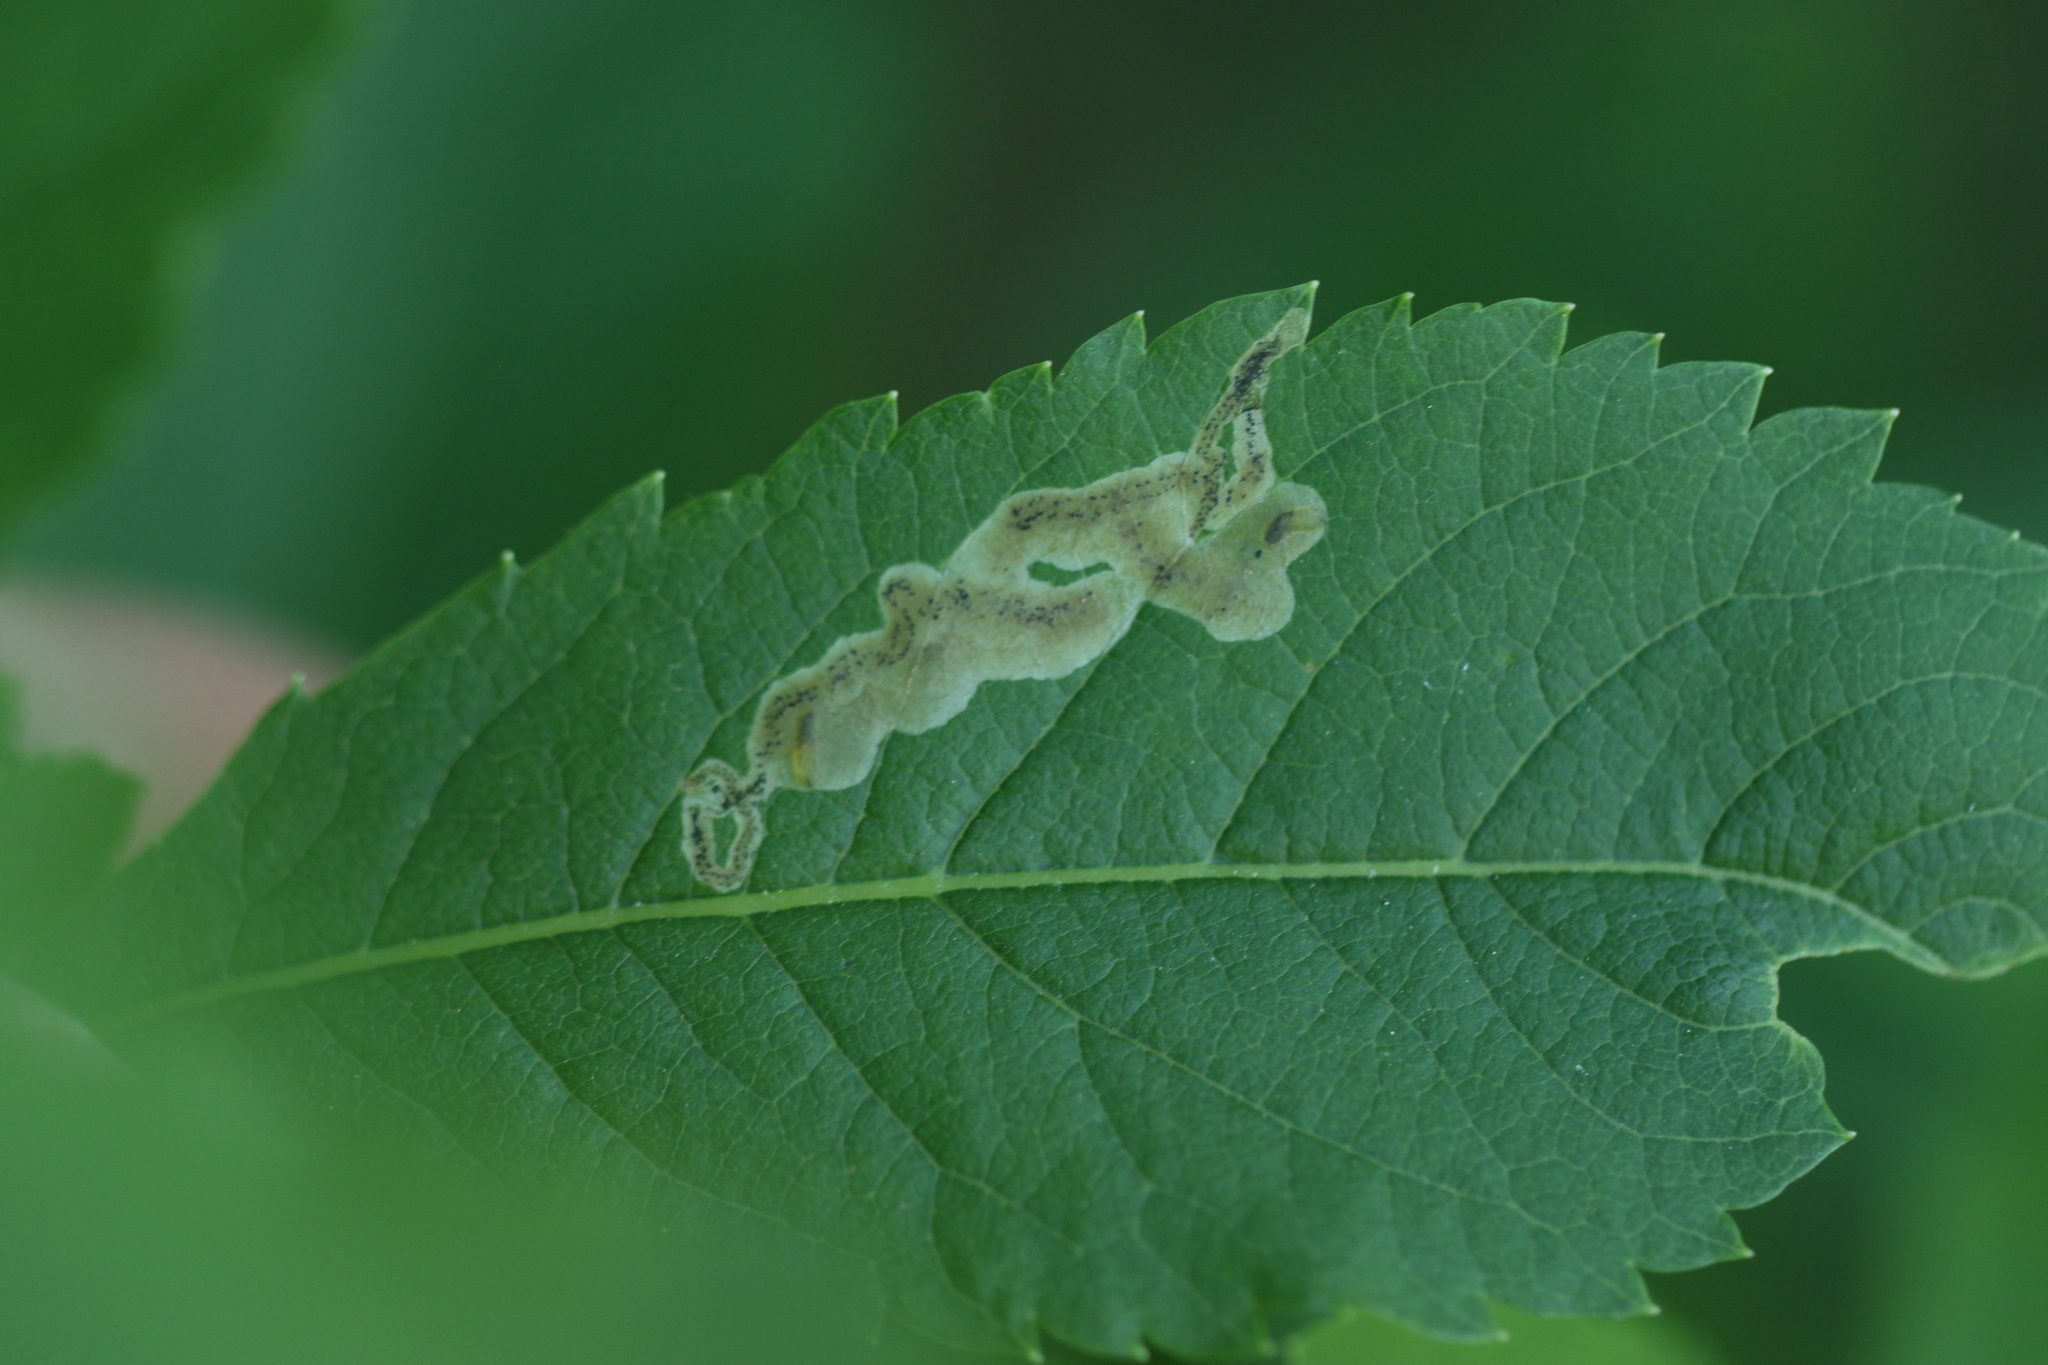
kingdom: Animalia
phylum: Arthropoda
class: Insecta
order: Diptera
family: Agromyzidae
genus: Agromyza
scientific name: Agromyza valdorensis
